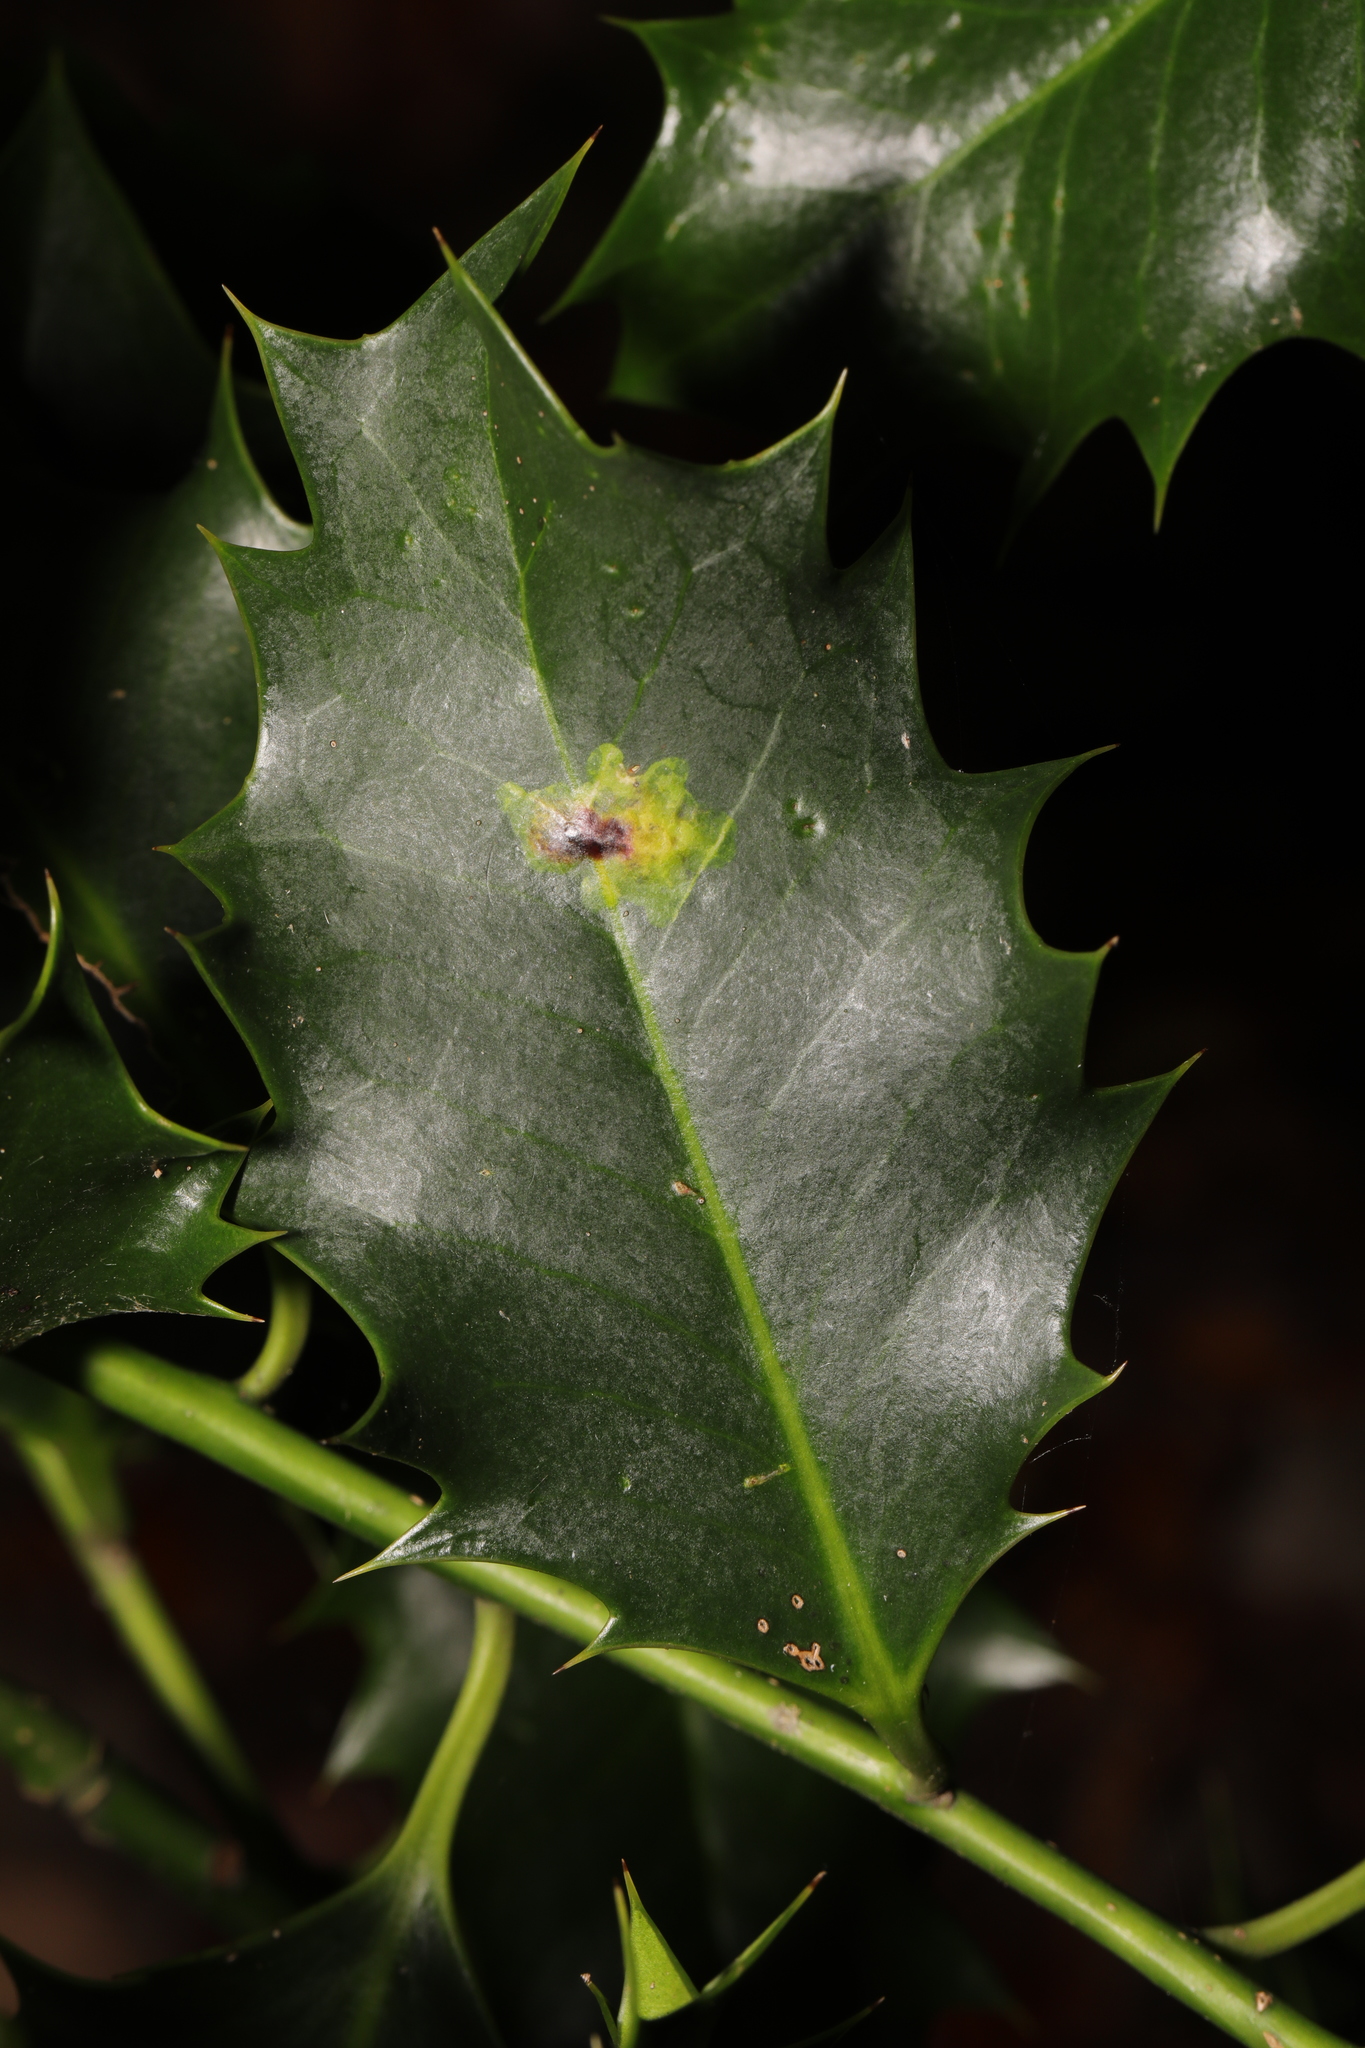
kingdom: Animalia
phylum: Arthropoda
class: Insecta
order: Diptera
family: Agromyzidae
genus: Phytomyza
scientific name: Phytomyza ilicis
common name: Holly leafminer
